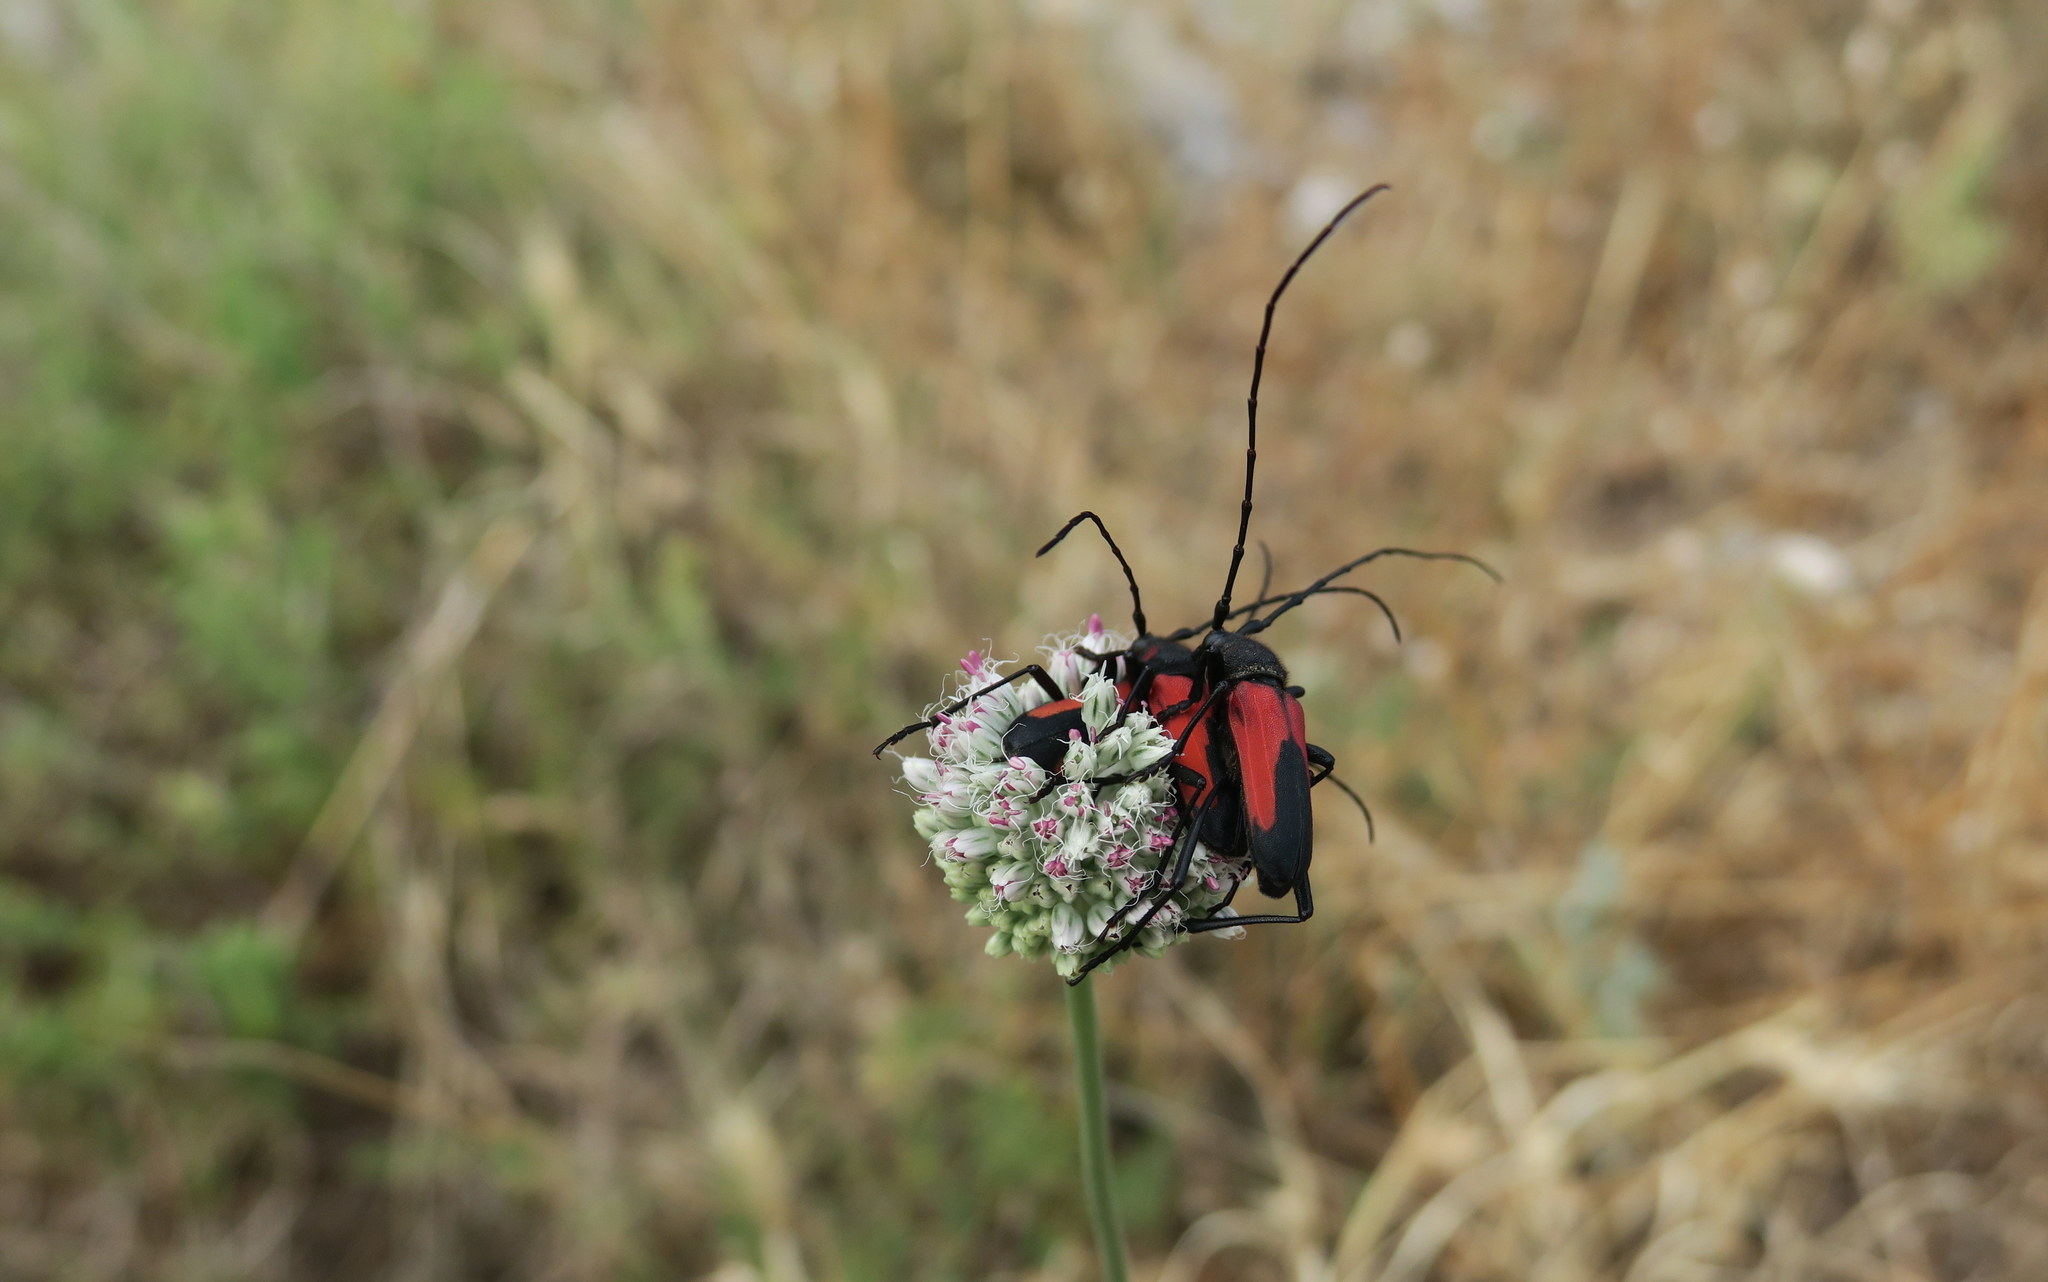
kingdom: Animalia
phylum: Arthropoda
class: Insecta
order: Coleoptera
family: Cerambycidae
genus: Purpuricenus
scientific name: Purpuricenus budensis
